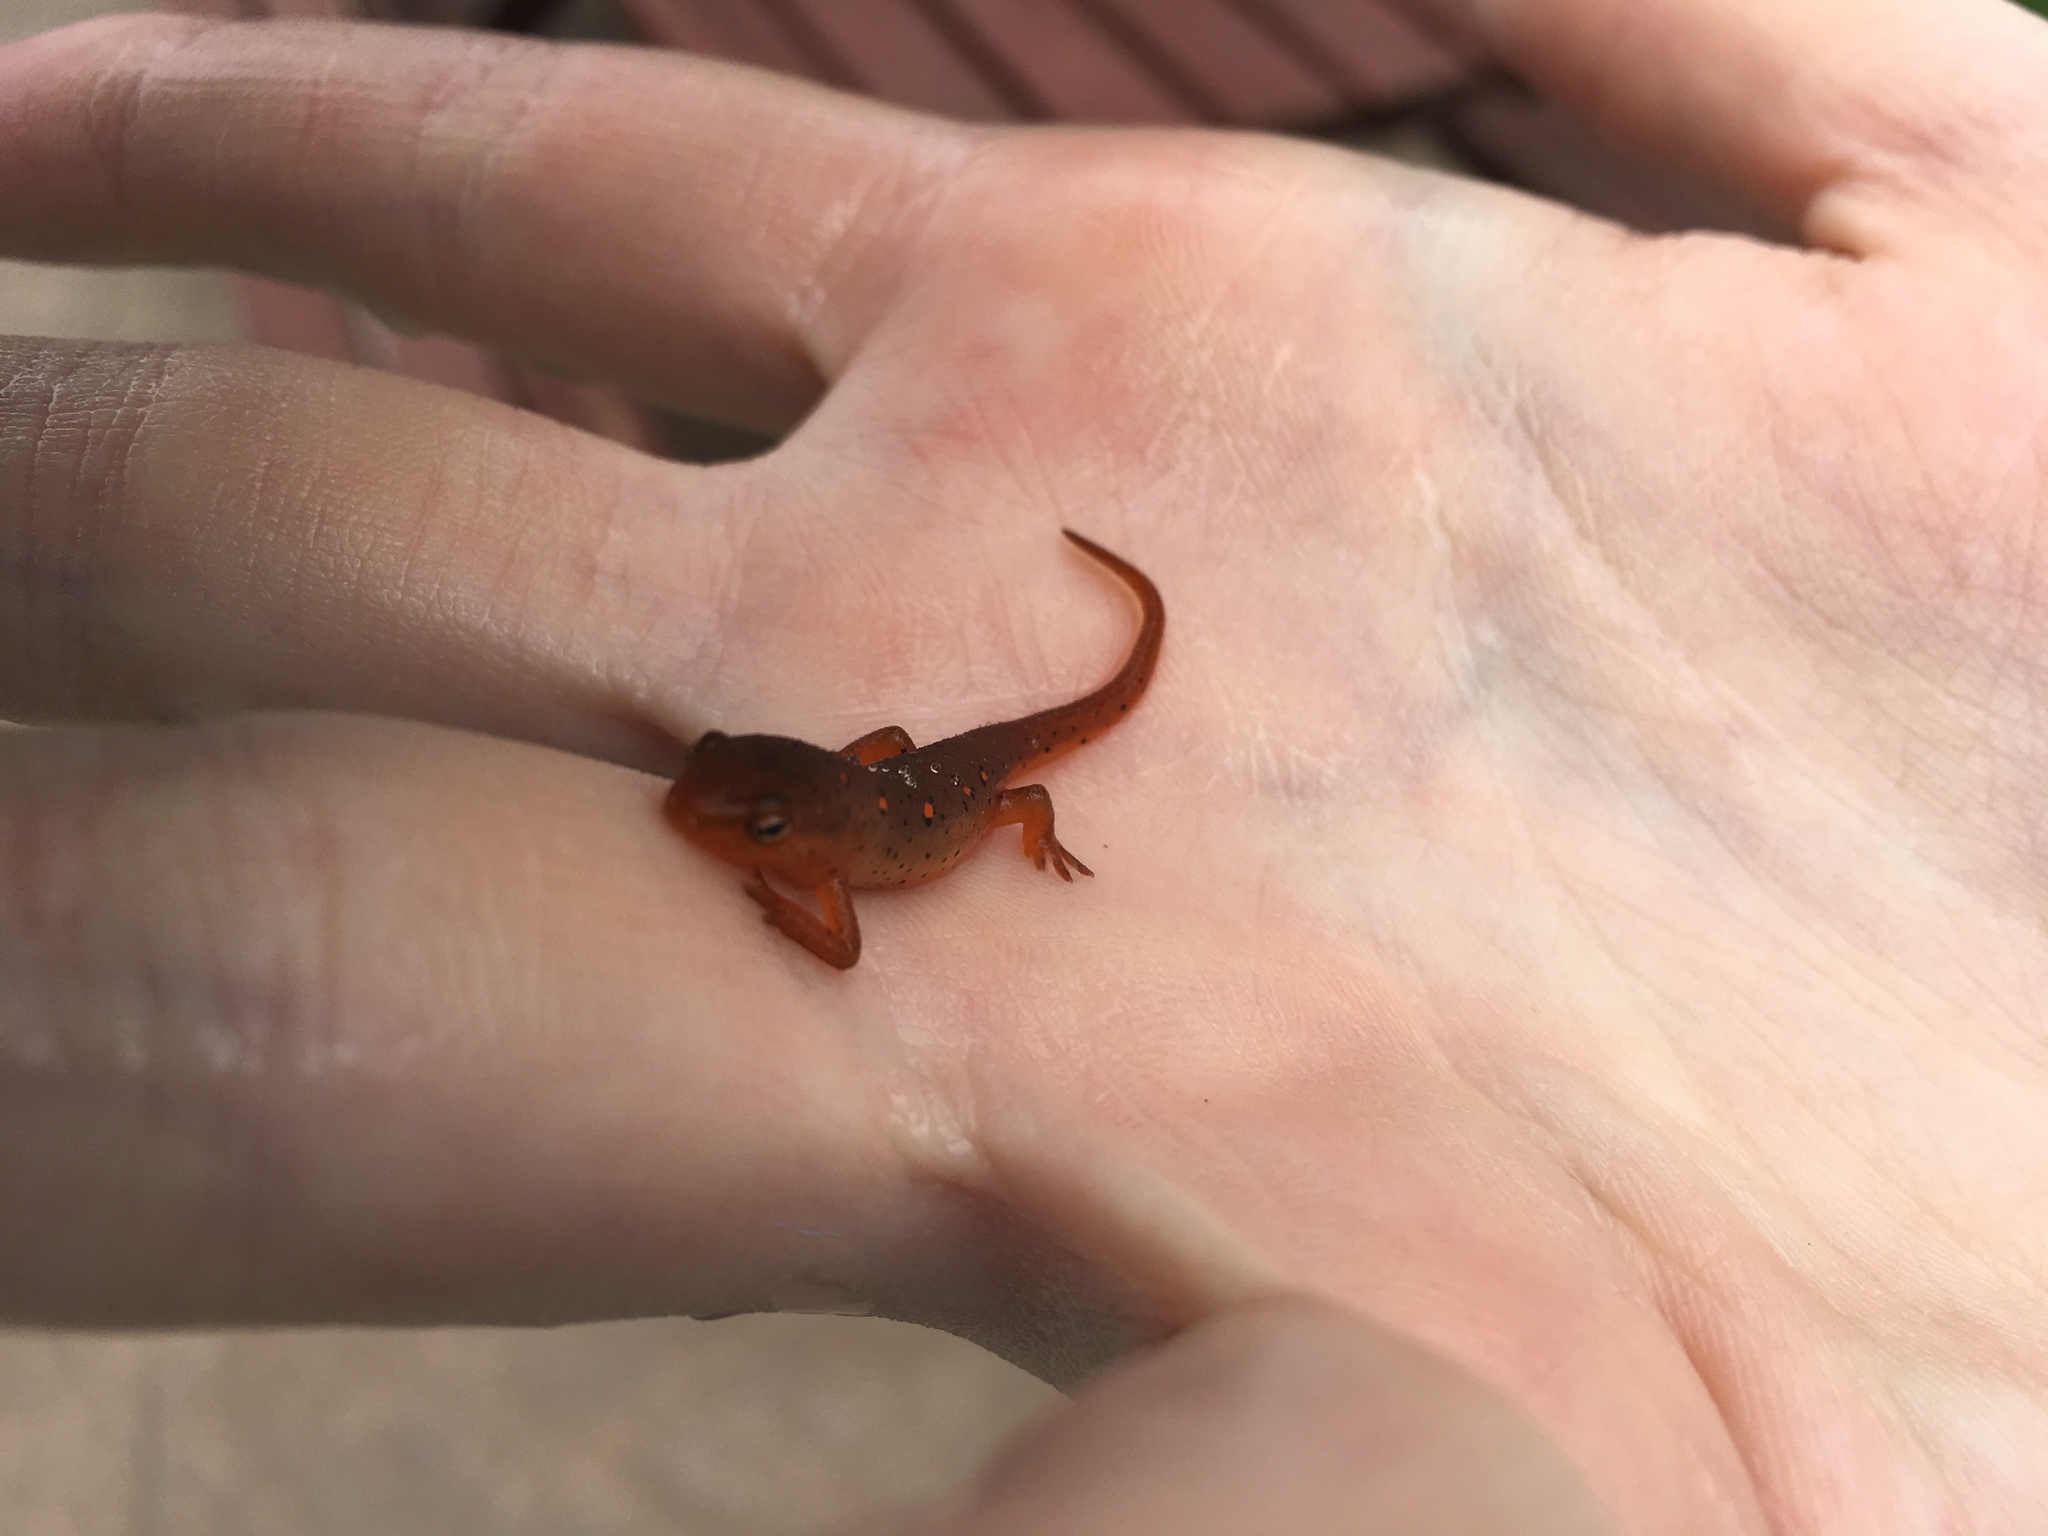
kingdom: Animalia
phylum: Chordata
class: Amphibia
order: Caudata
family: Salamandridae
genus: Notophthalmus
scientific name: Notophthalmus viridescens
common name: Eastern newt
